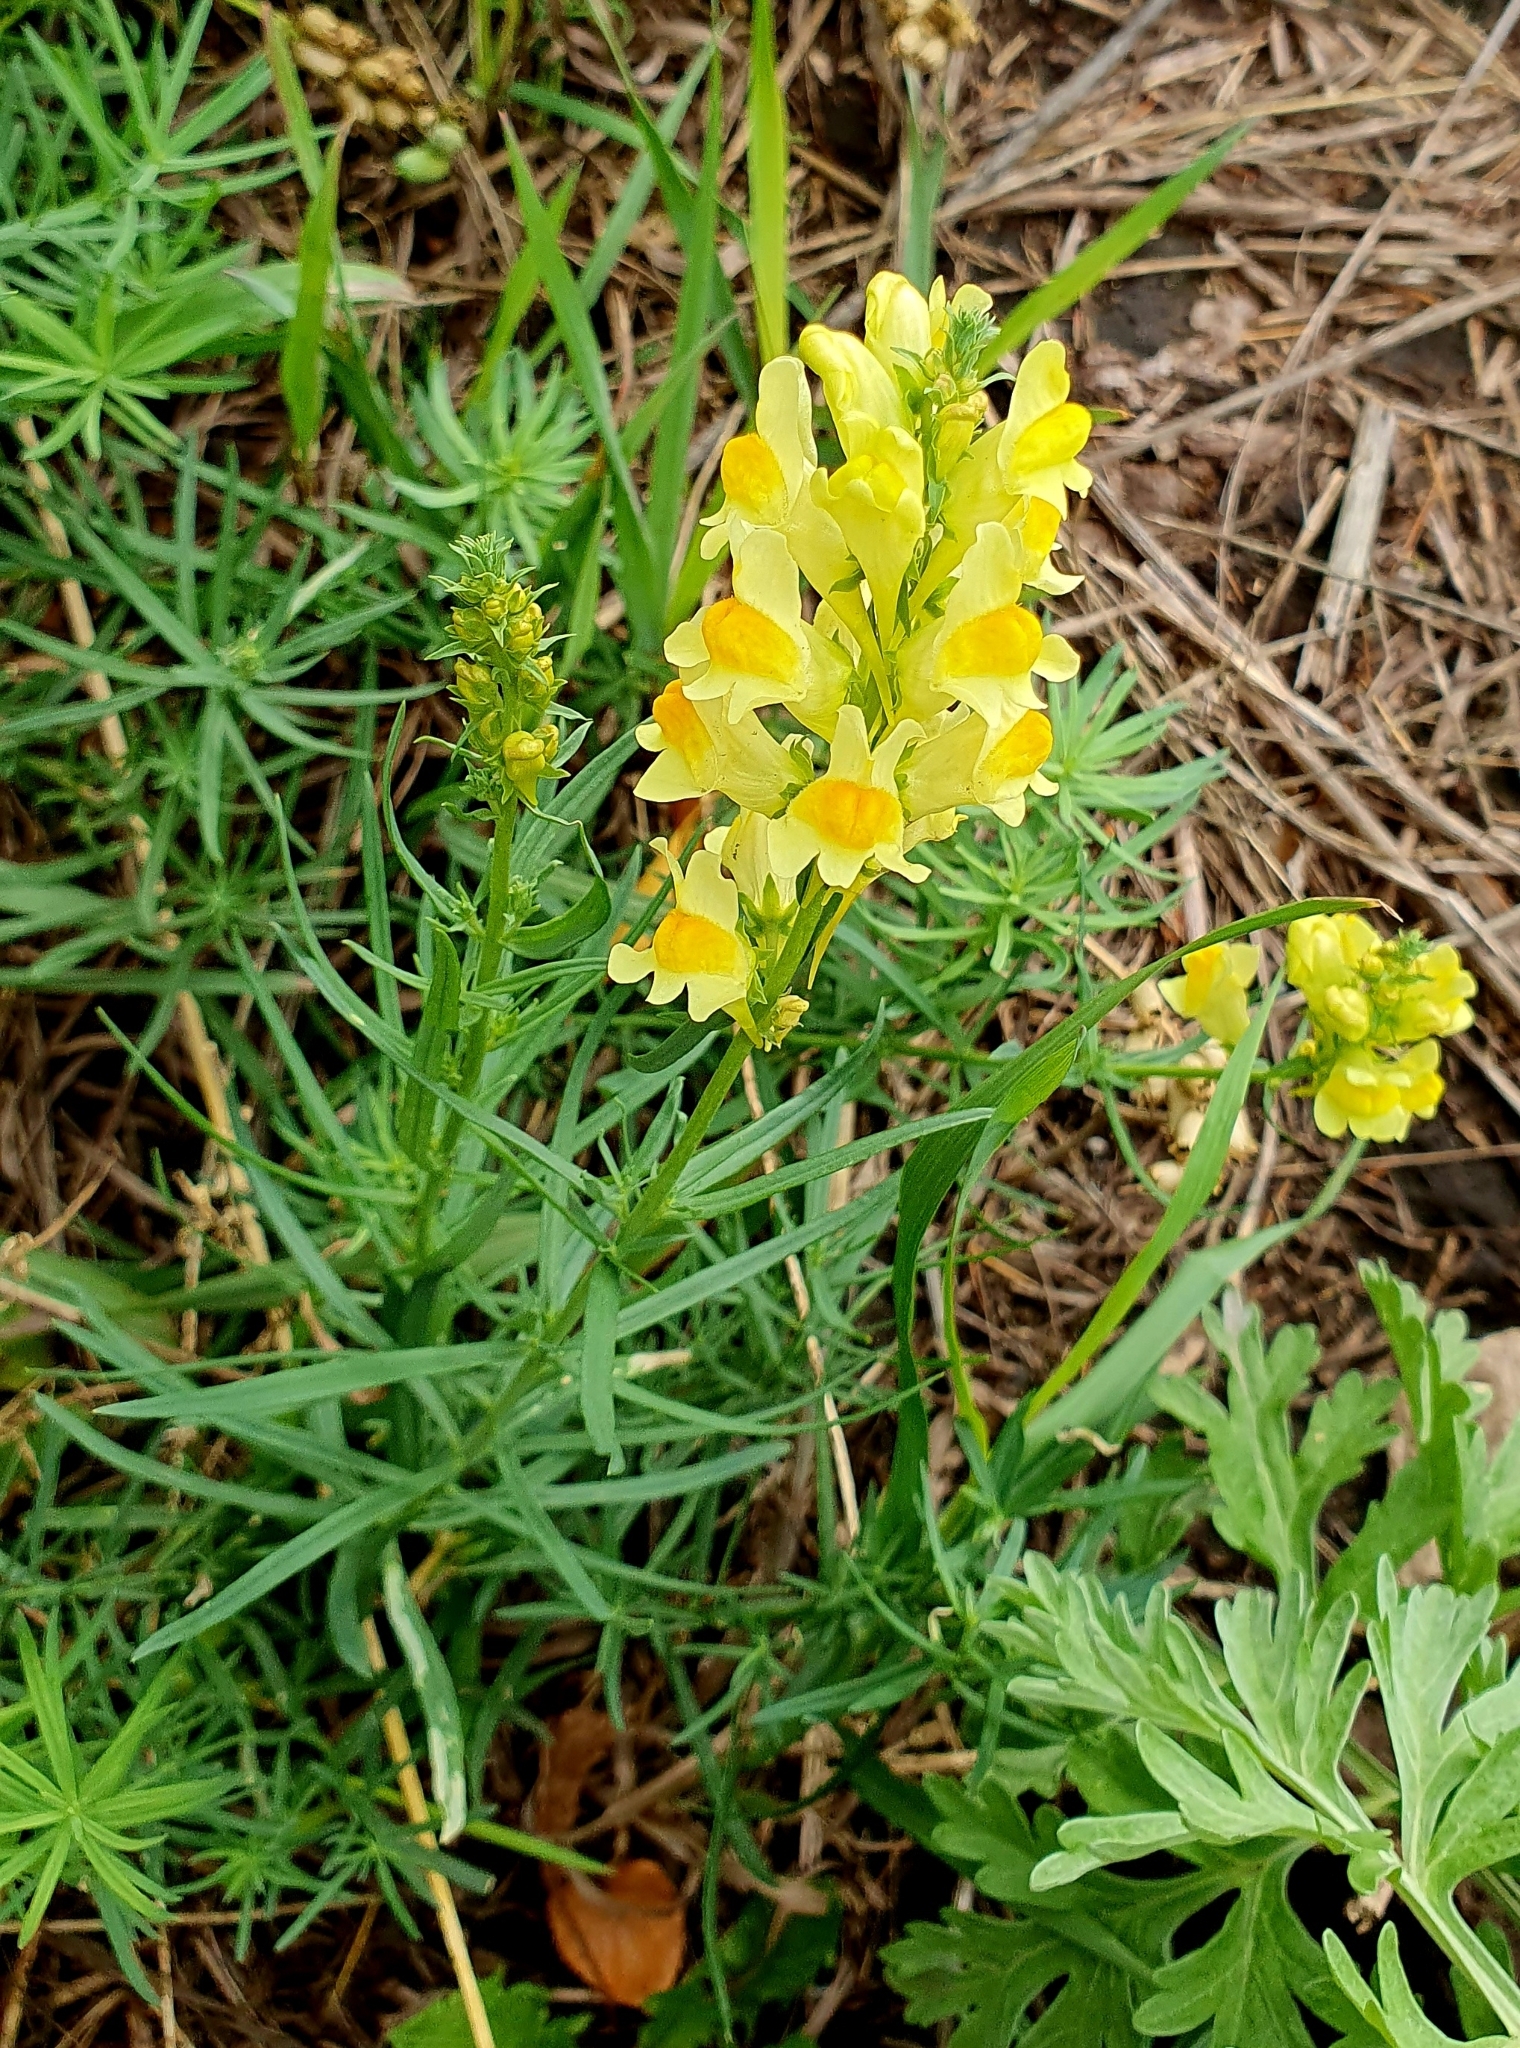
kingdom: Plantae
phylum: Tracheophyta
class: Magnoliopsida
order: Lamiales
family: Plantaginaceae
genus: Linaria
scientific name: Linaria vulgaris
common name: Butter and eggs
